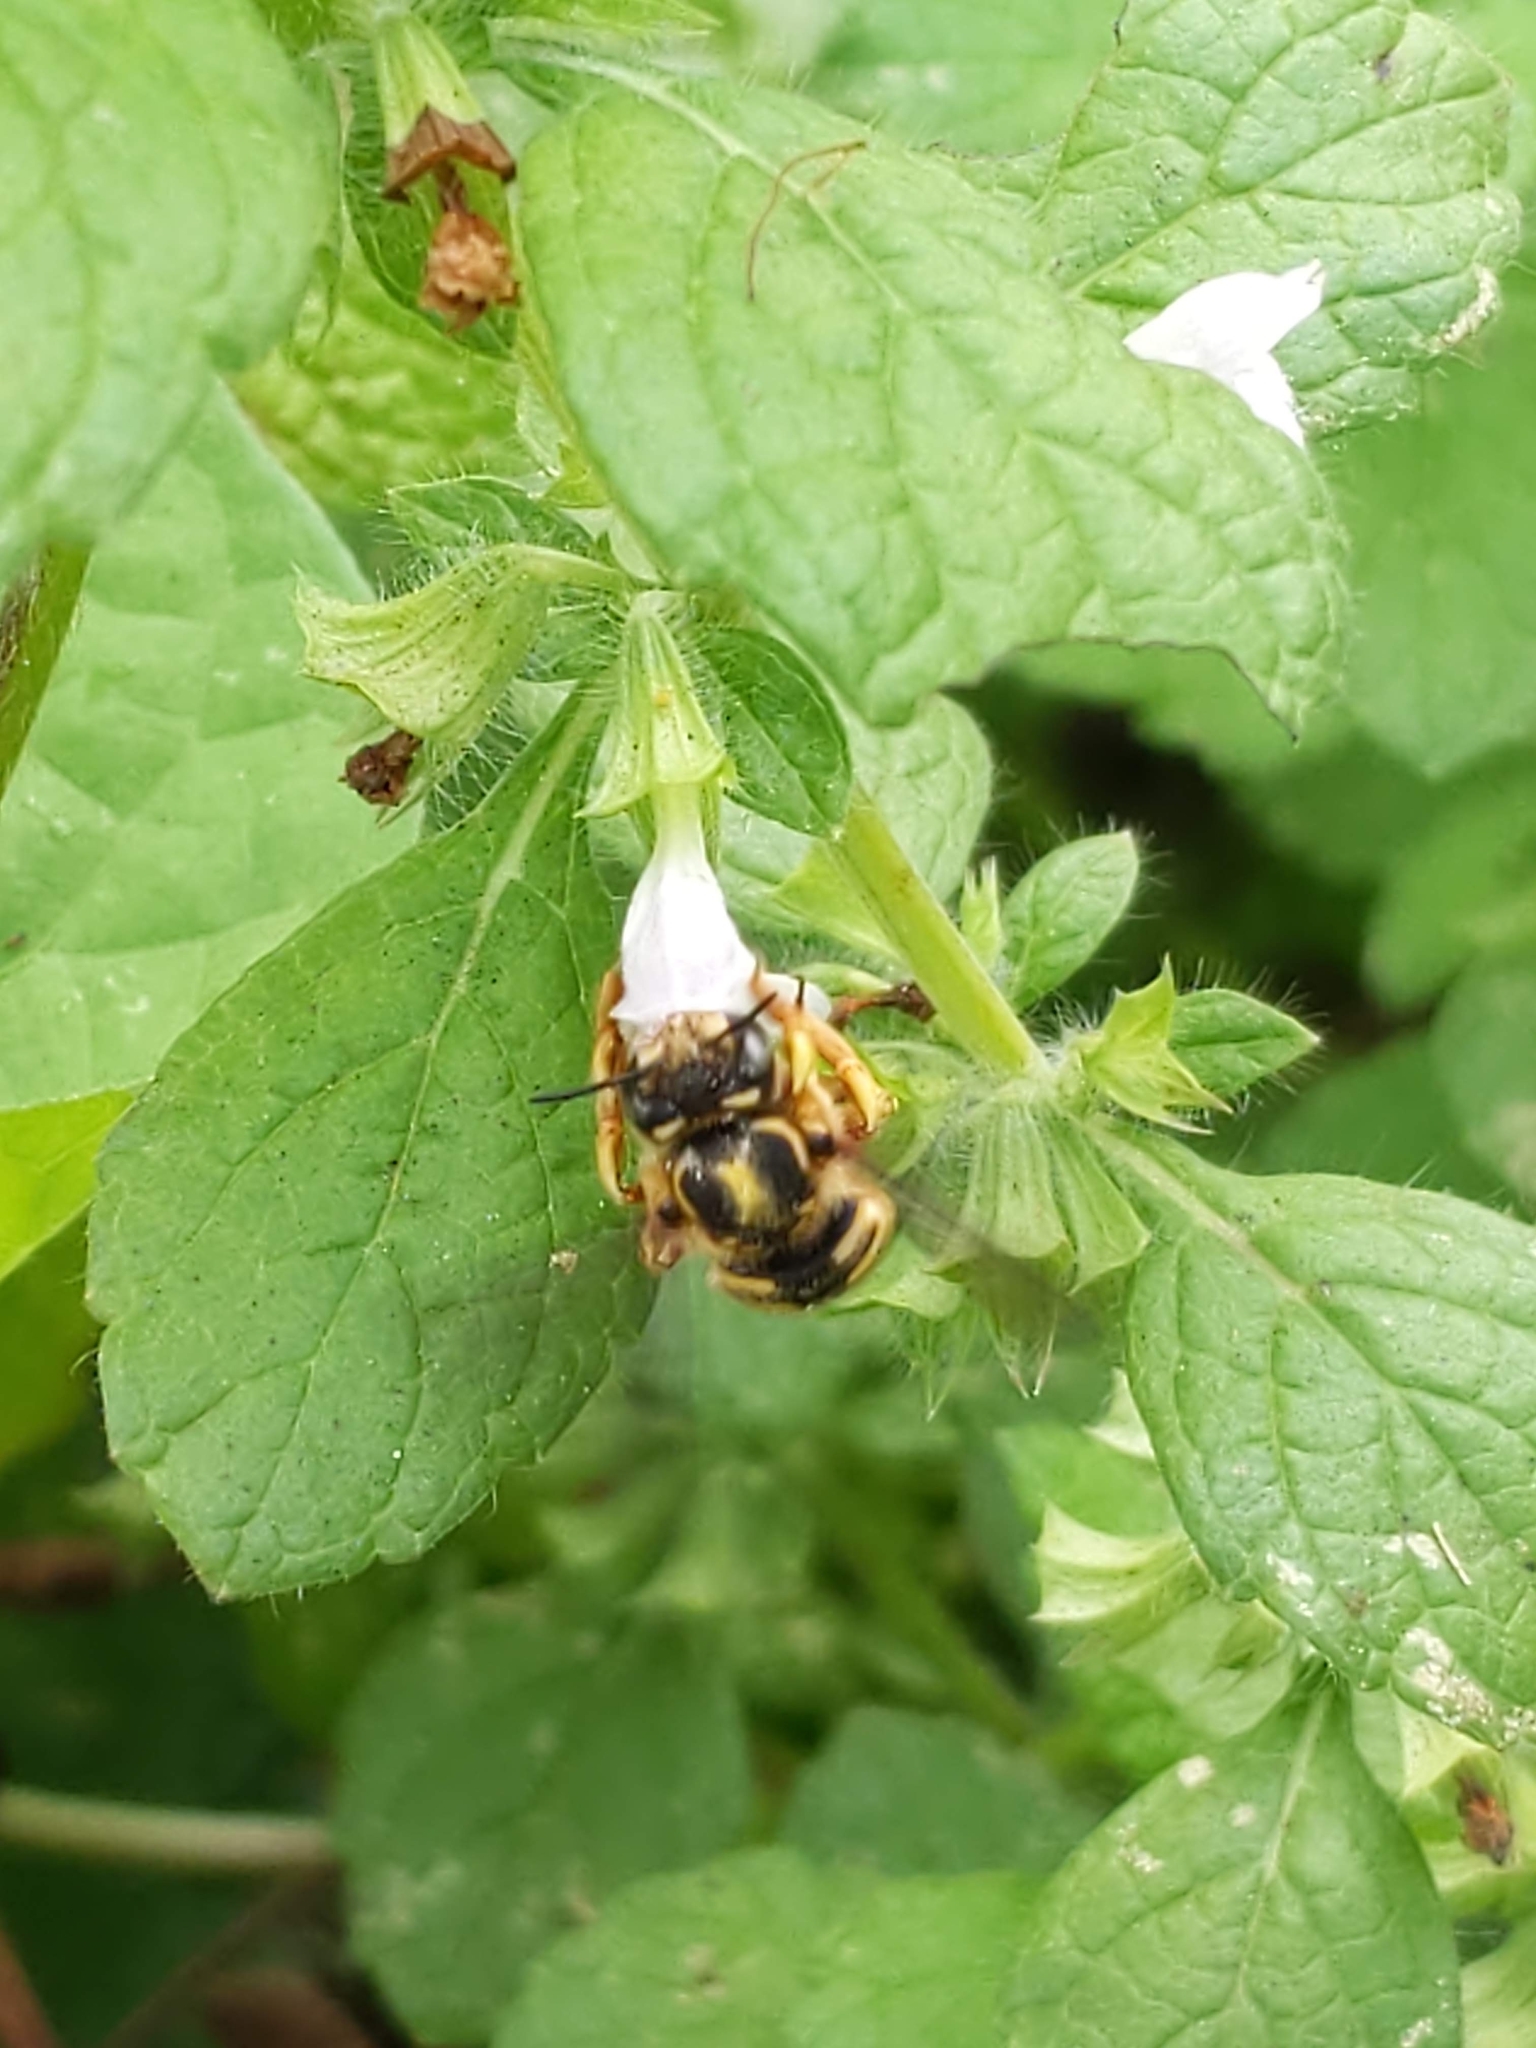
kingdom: Animalia
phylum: Arthropoda
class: Insecta
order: Hymenoptera
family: Megachilidae
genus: Anthidium
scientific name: Anthidium manicatum
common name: Wool carder bee
